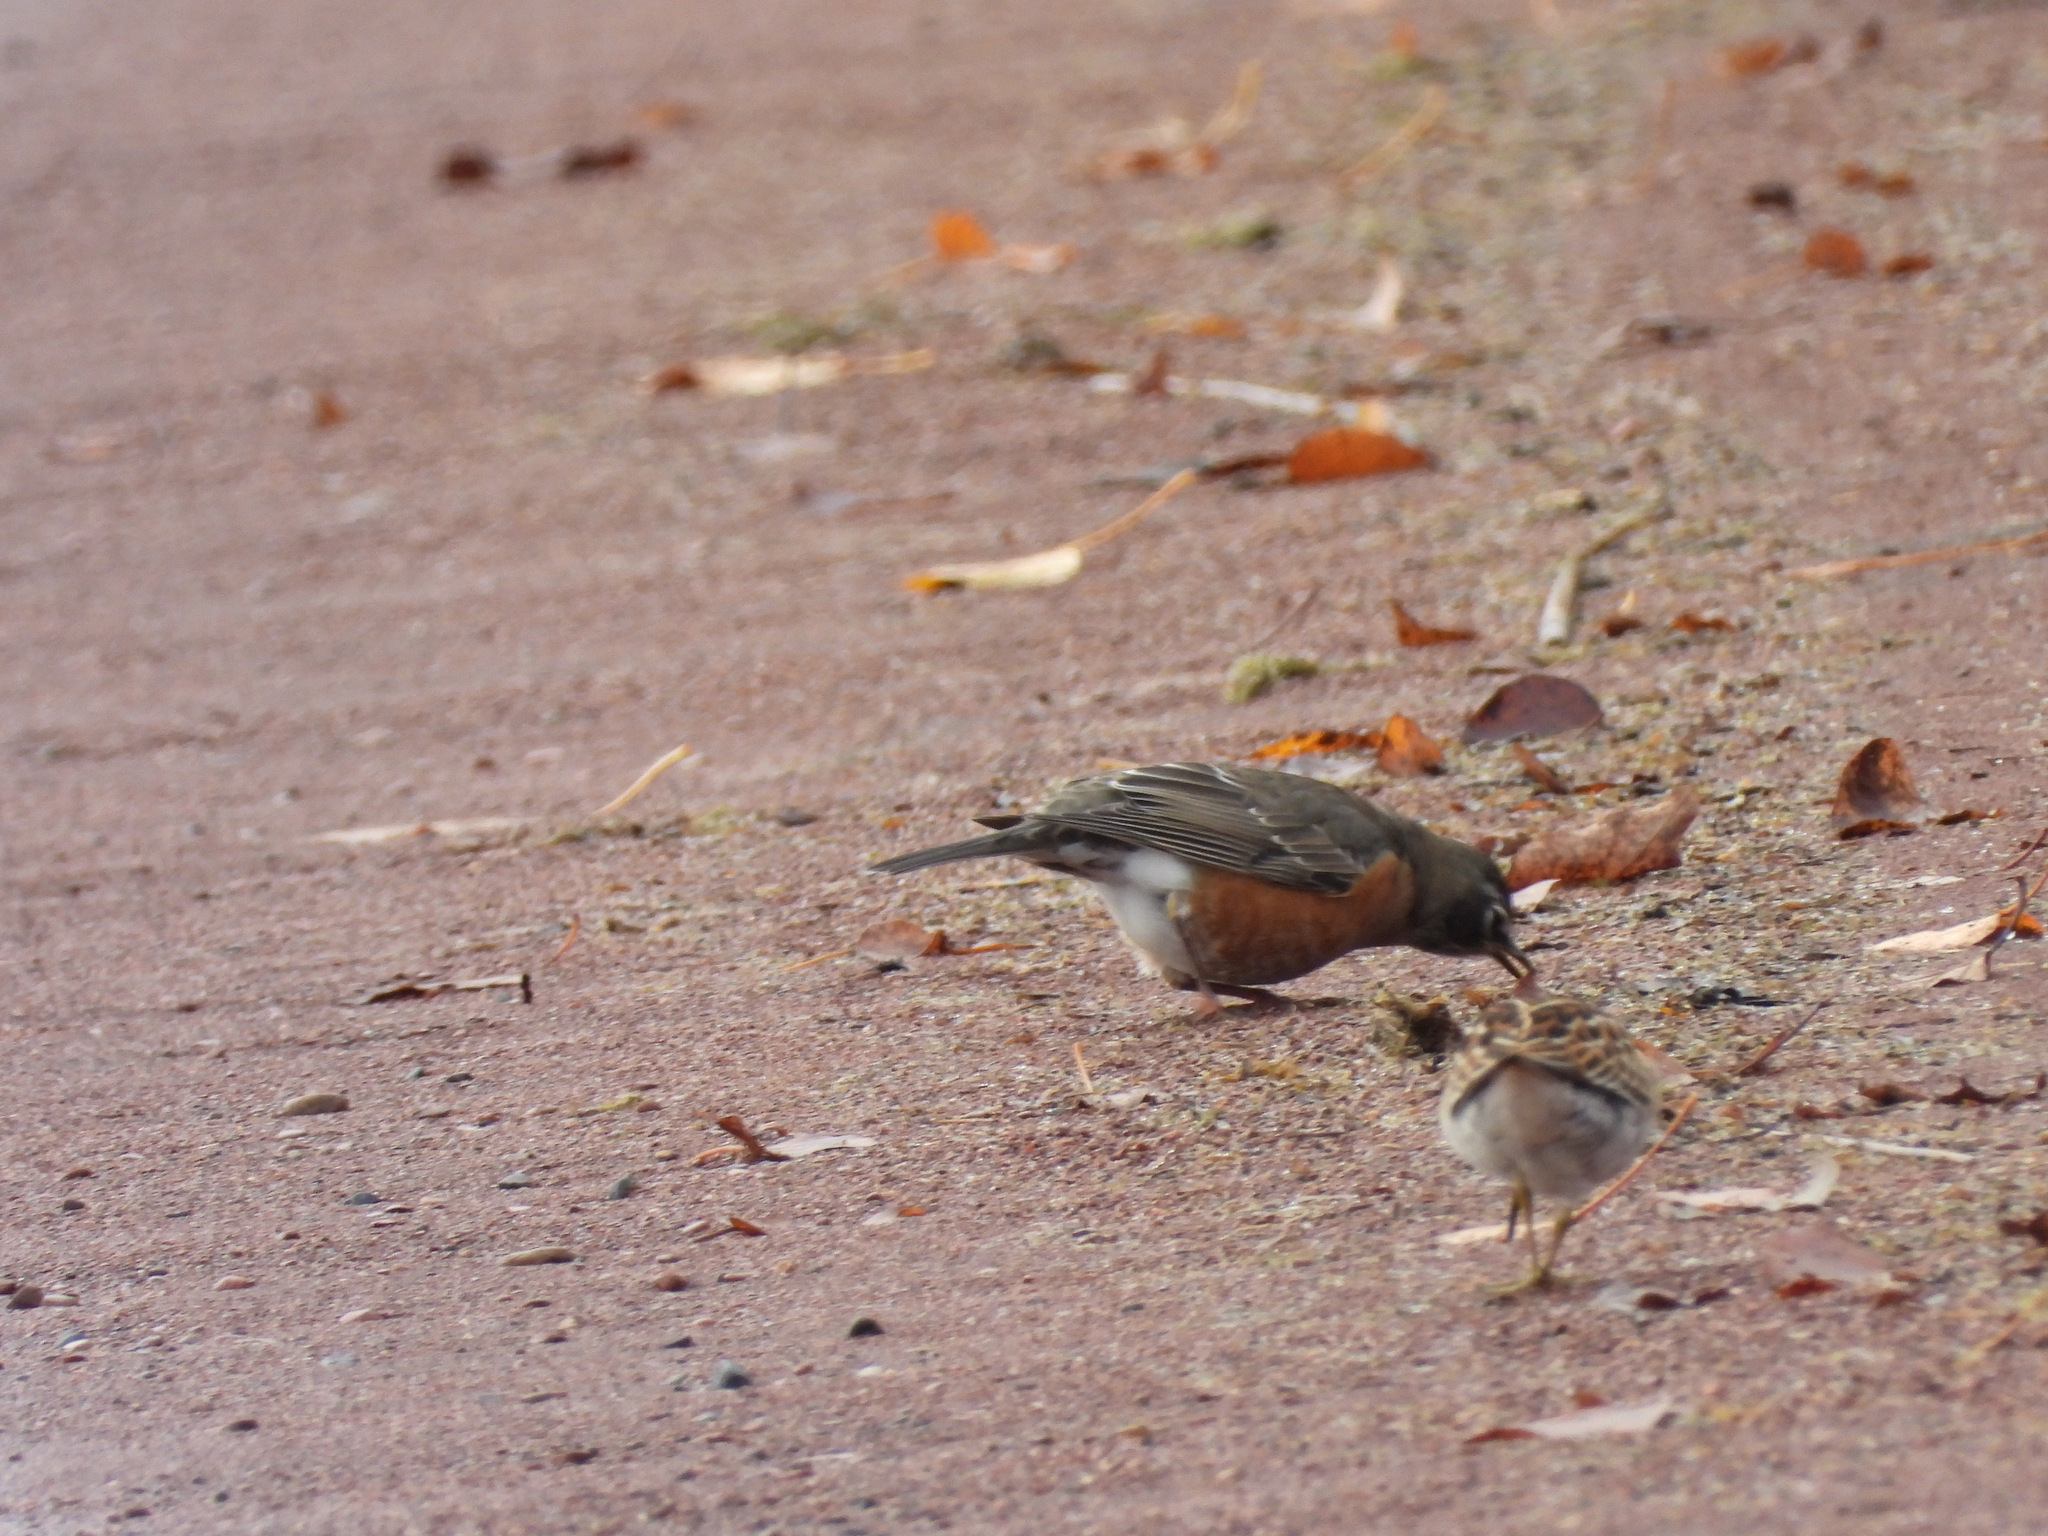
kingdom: Animalia
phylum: Chordata
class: Aves
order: Passeriformes
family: Turdidae
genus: Turdus
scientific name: Turdus migratorius
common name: American robin
